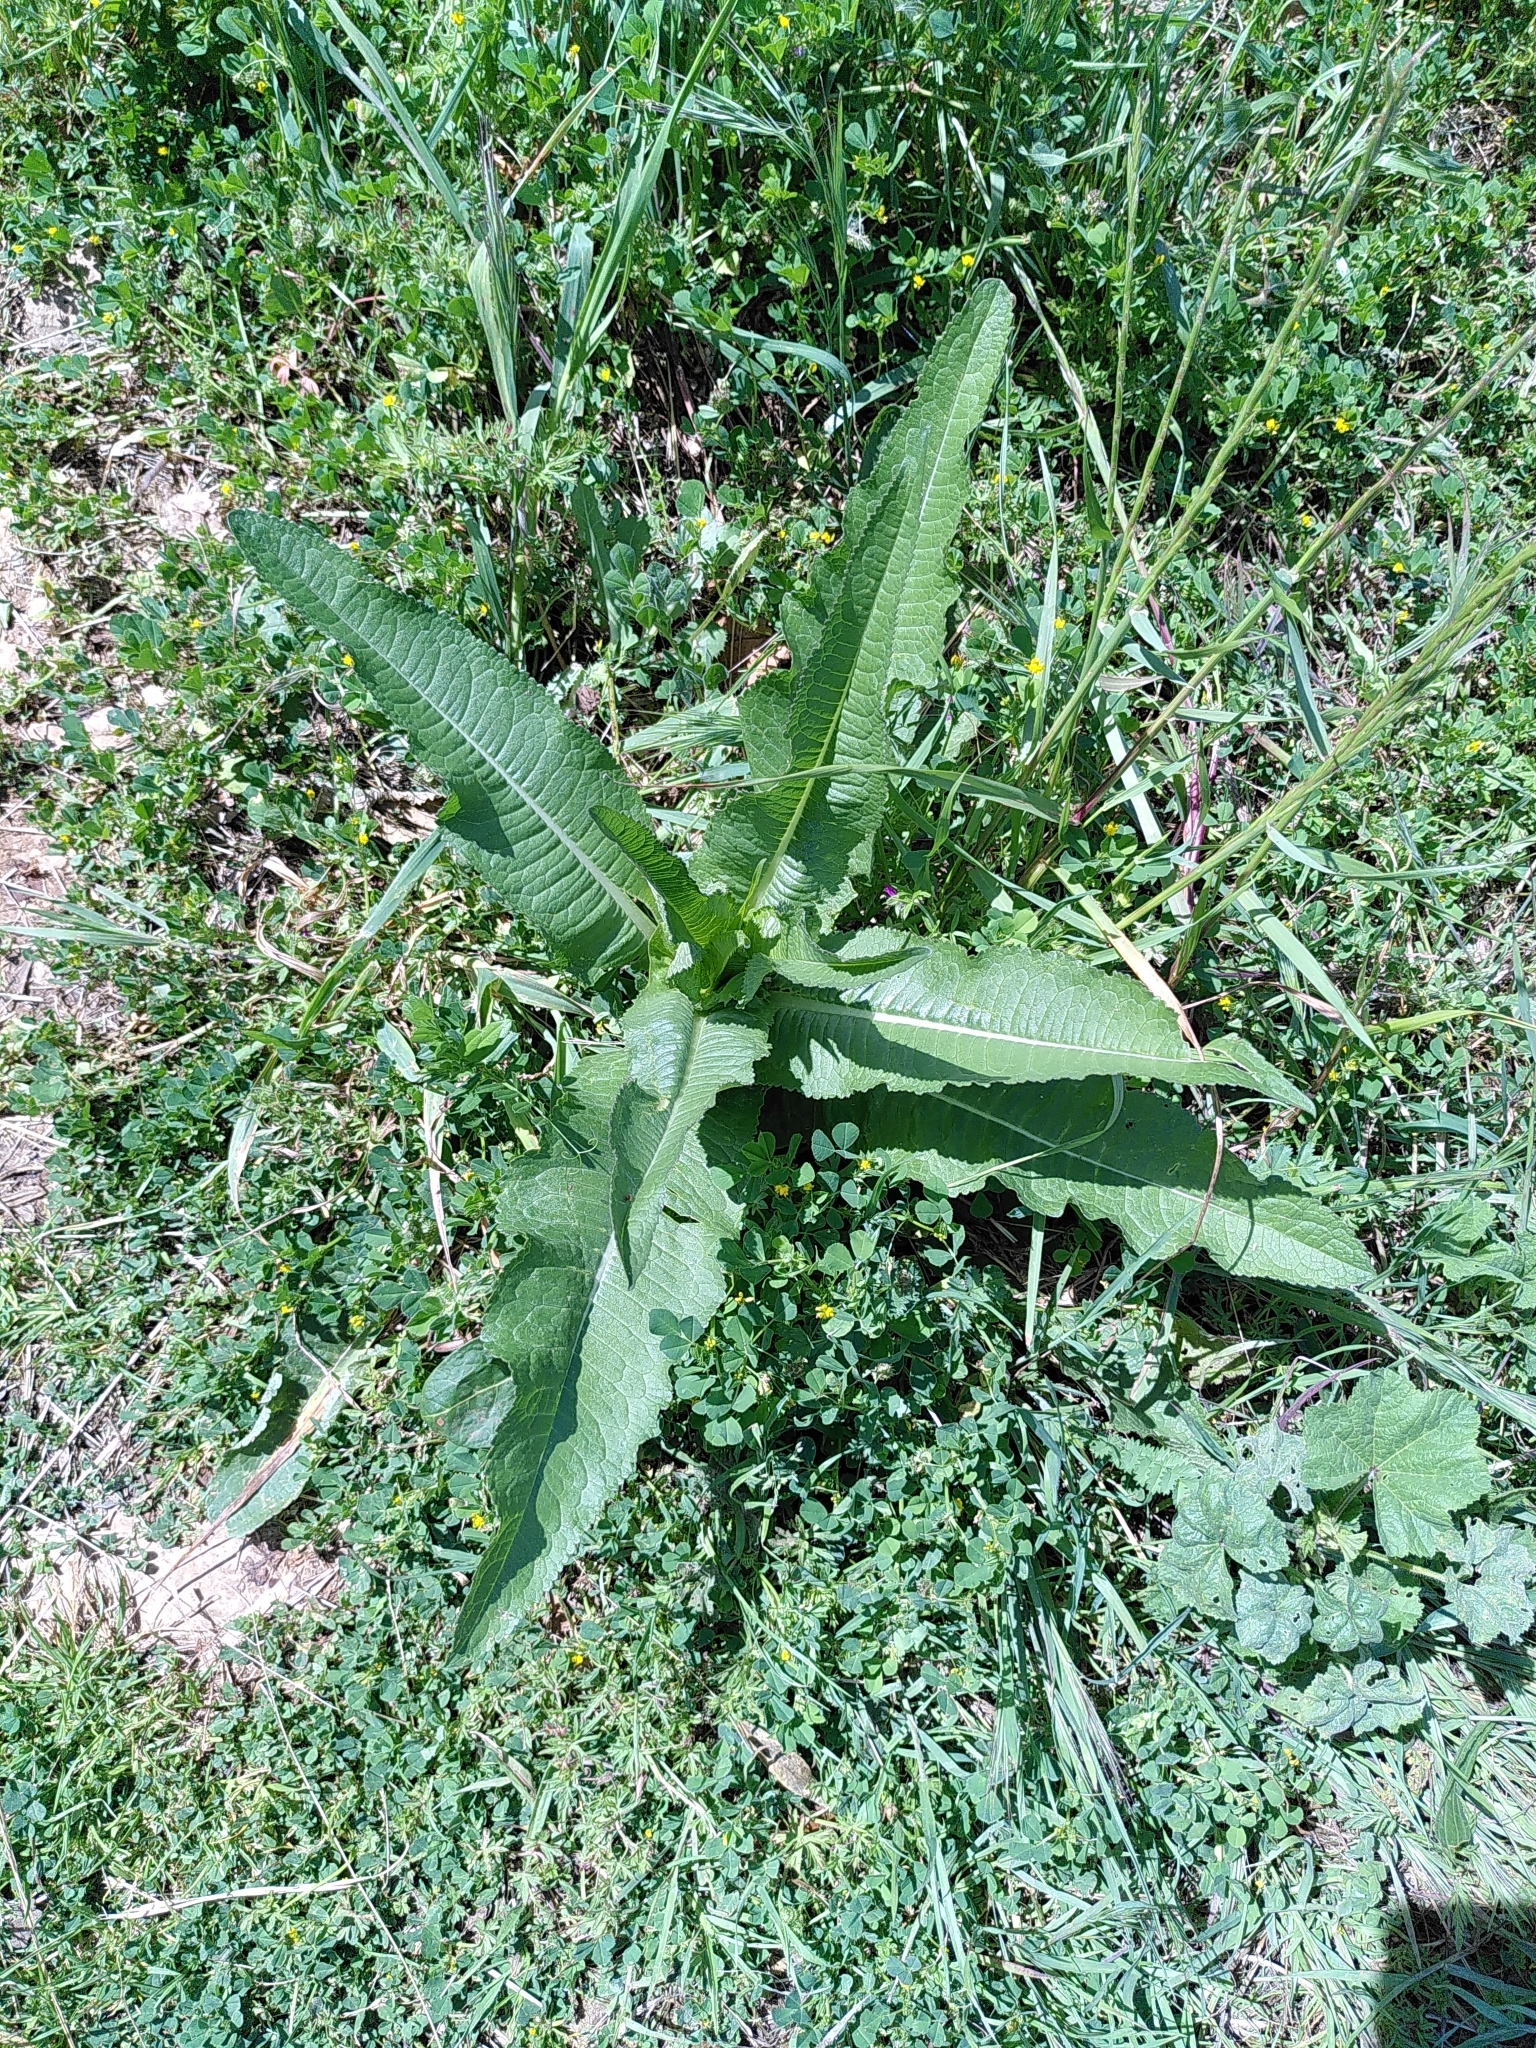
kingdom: Plantae
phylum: Tracheophyta
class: Magnoliopsida
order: Dipsacales
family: Caprifoliaceae
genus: Dipsacus
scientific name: Dipsacus fullonum
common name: Teasel
